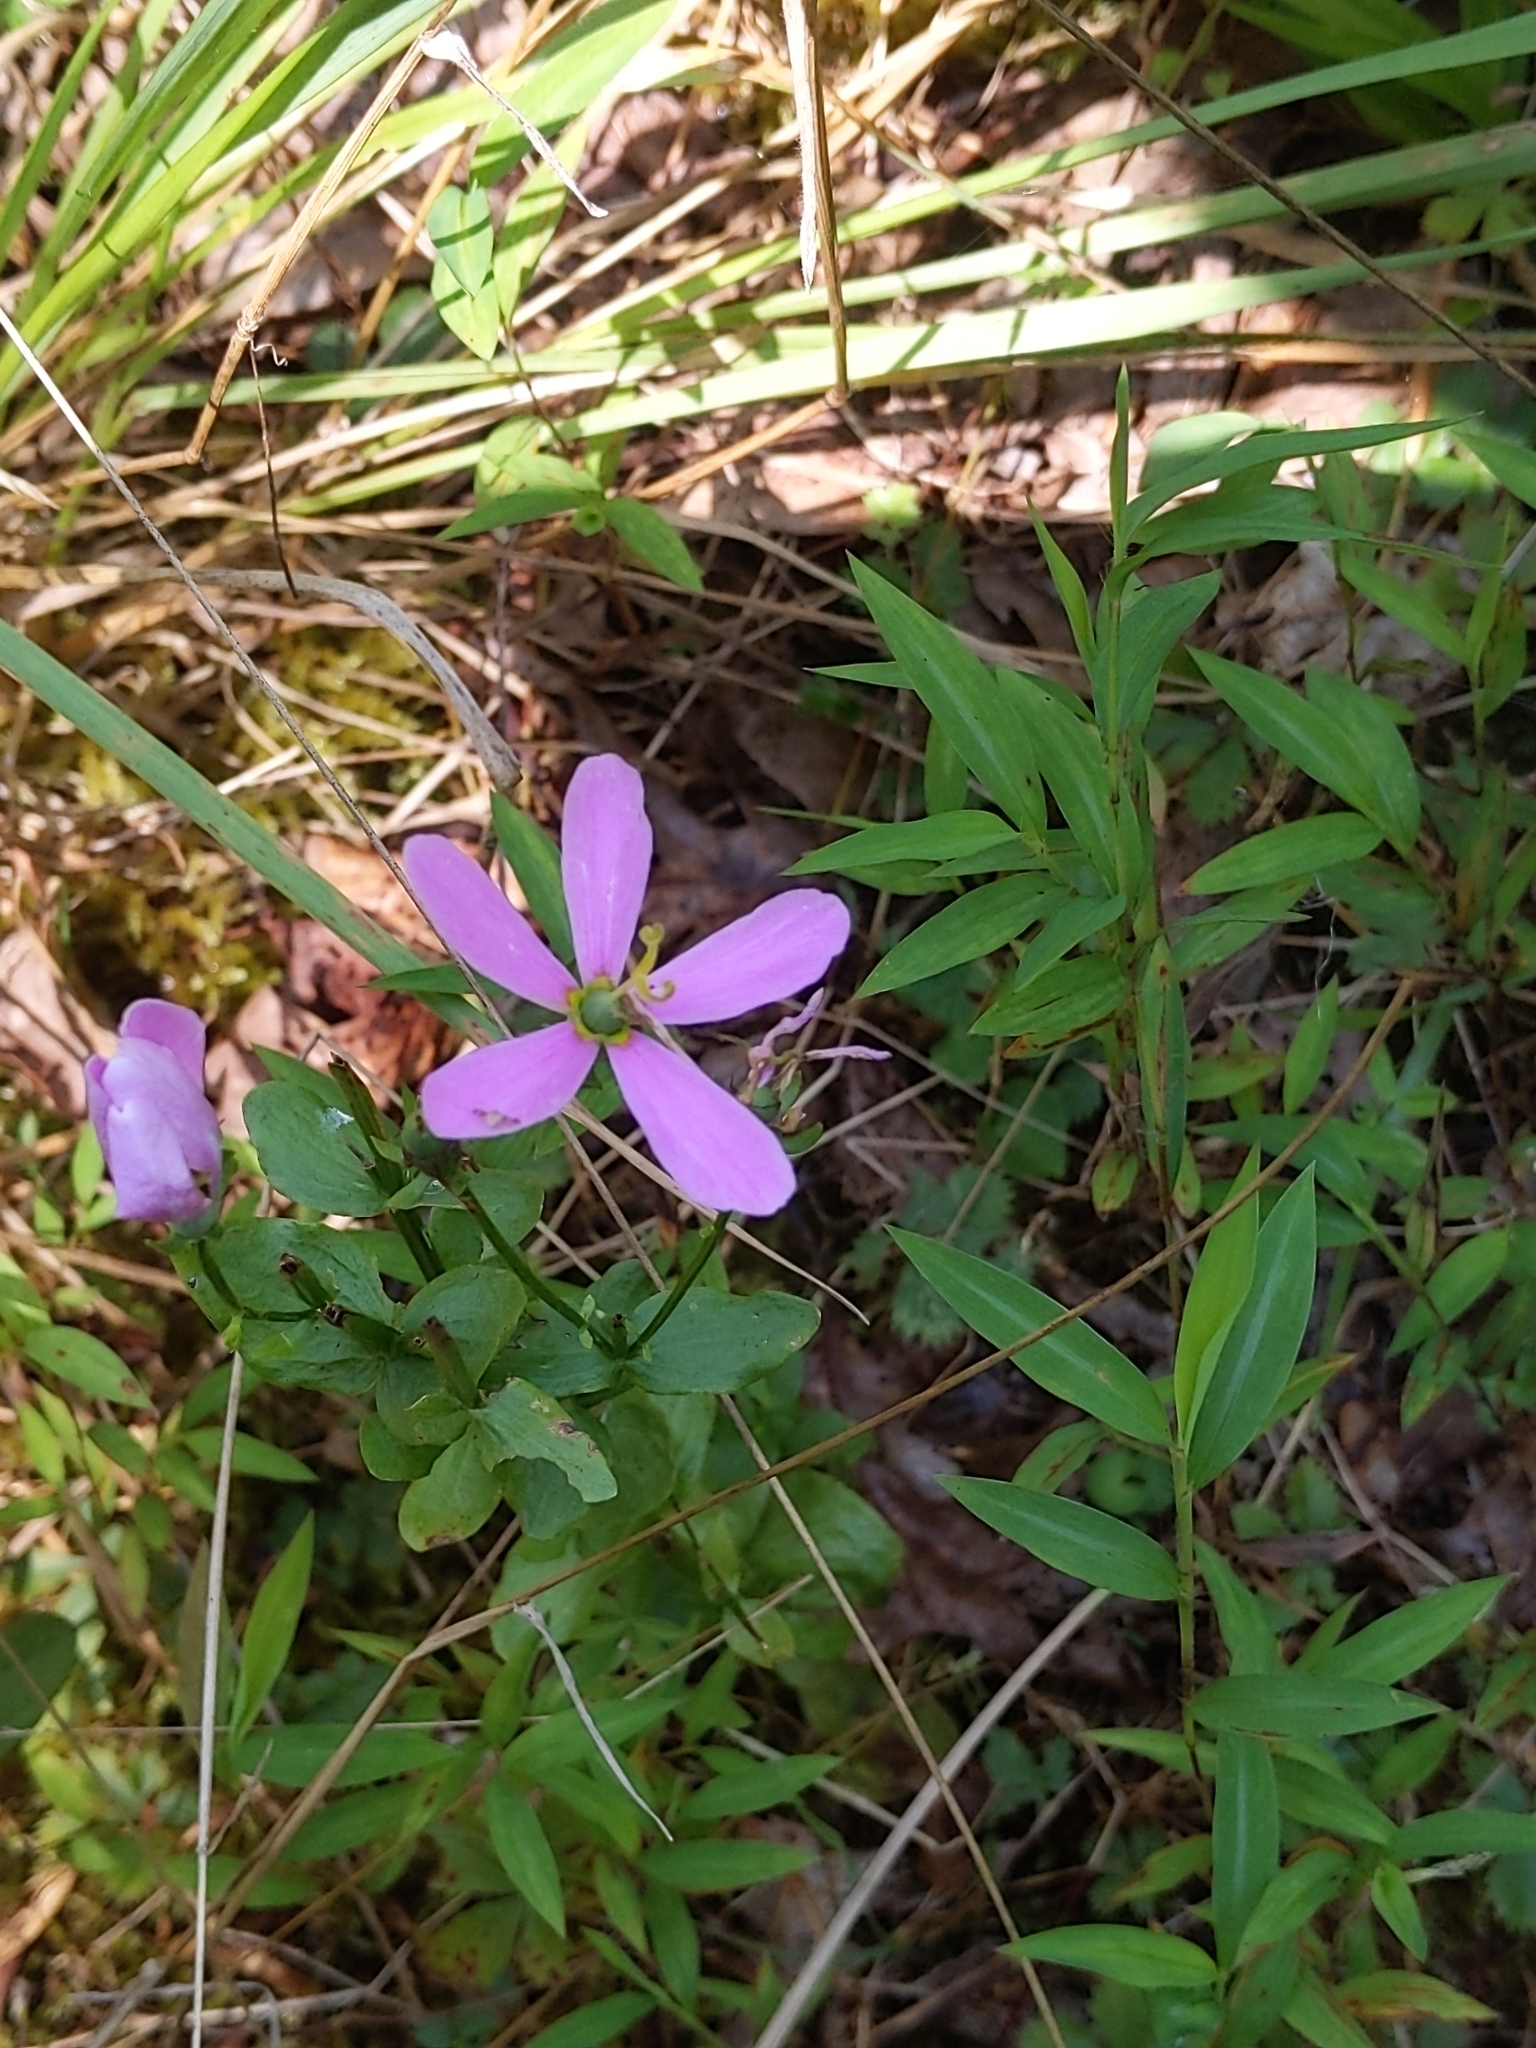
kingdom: Plantae
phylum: Tracheophyta
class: Magnoliopsida
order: Gentianales
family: Gentianaceae
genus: Sabatia
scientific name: Sabatia angularis
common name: Rose-pink
